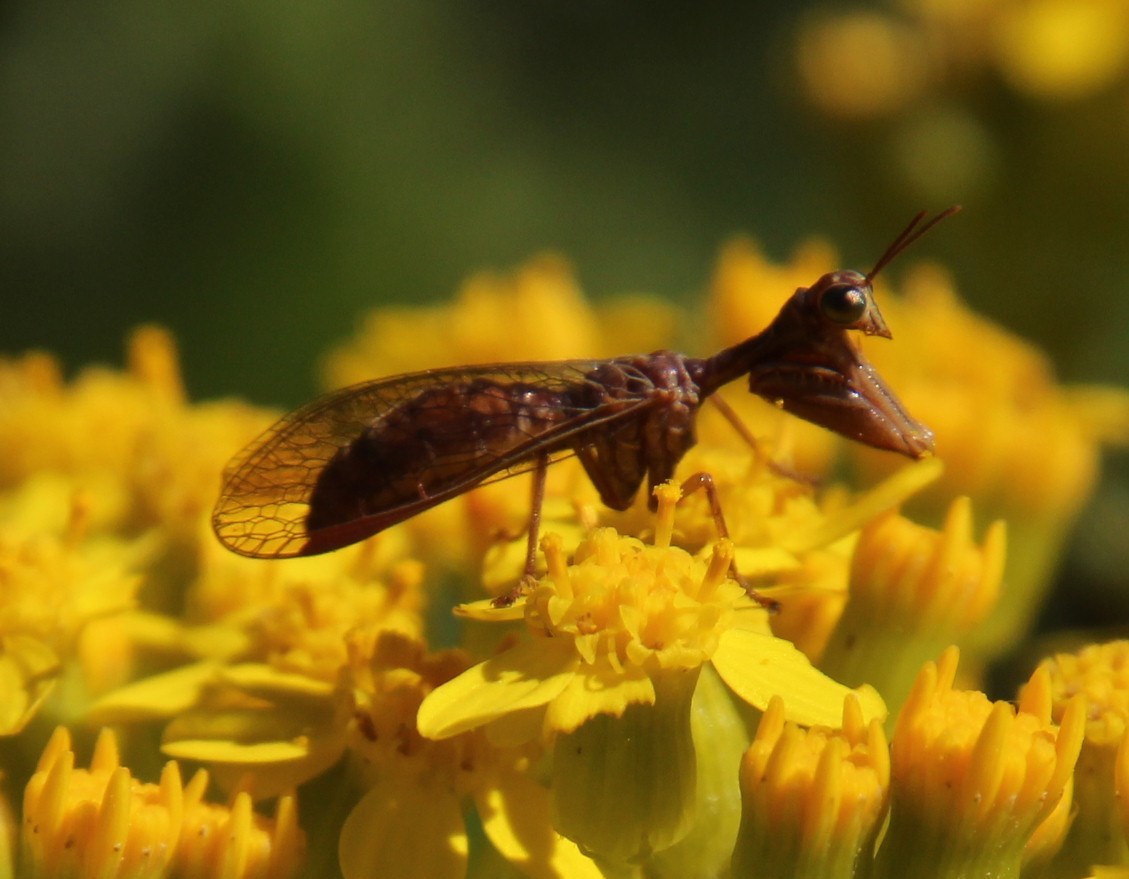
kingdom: Plantae
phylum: Tracheophyta
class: Magnoliopsida
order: Asterales
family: Asteraceae
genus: Senecio
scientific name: Senecio rigidus
